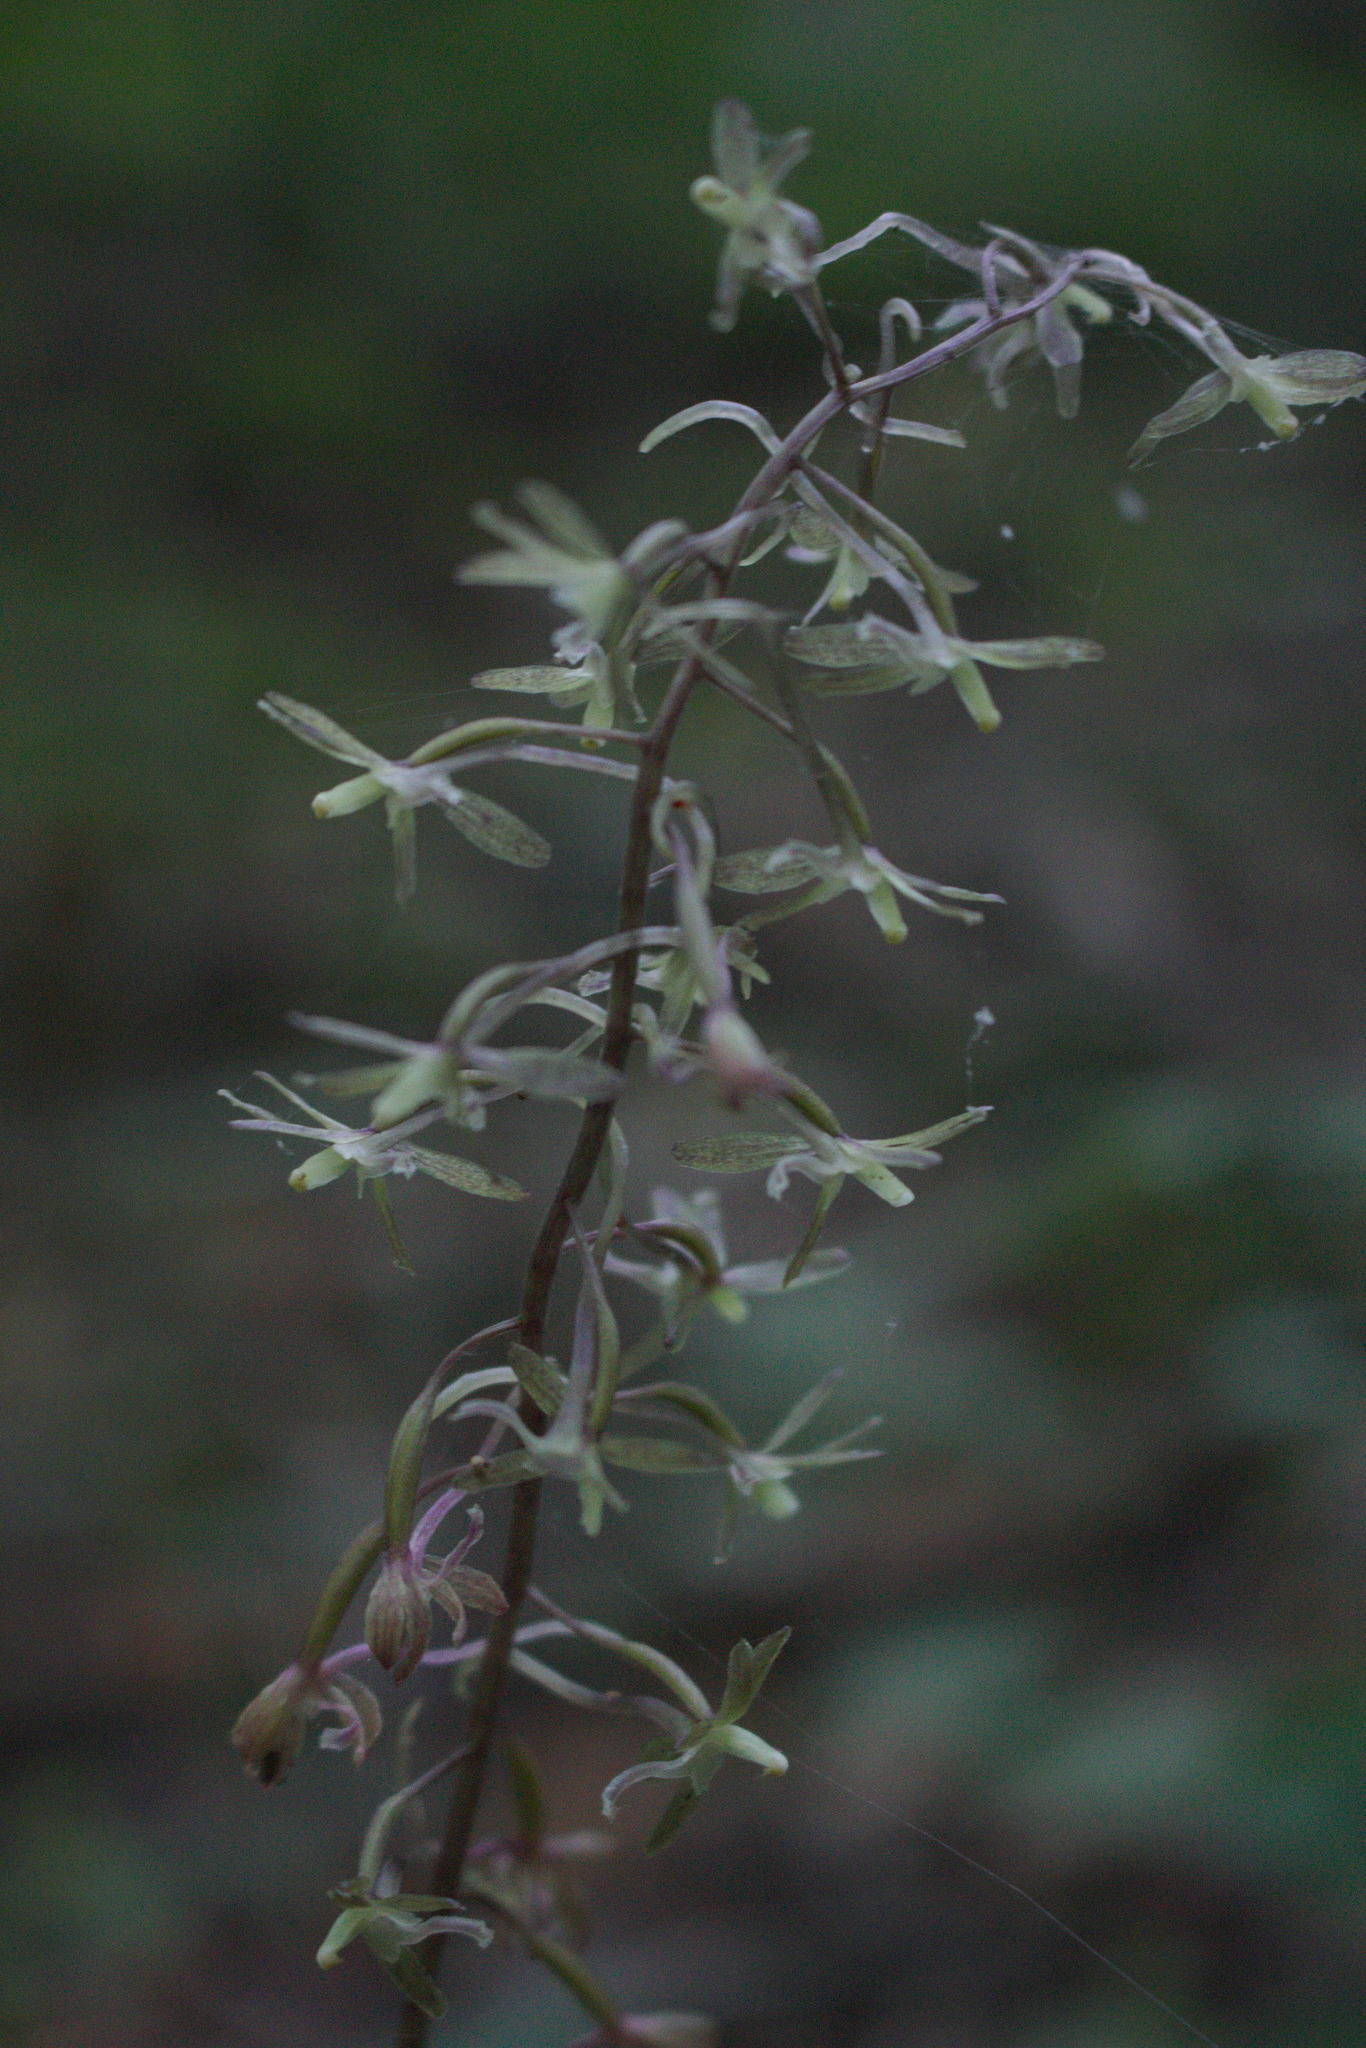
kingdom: Plantae
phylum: Tracheophyta
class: Liliopsida
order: Asparagales
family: Orchidaceae
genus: Tipularia
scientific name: Tipularia discolor
